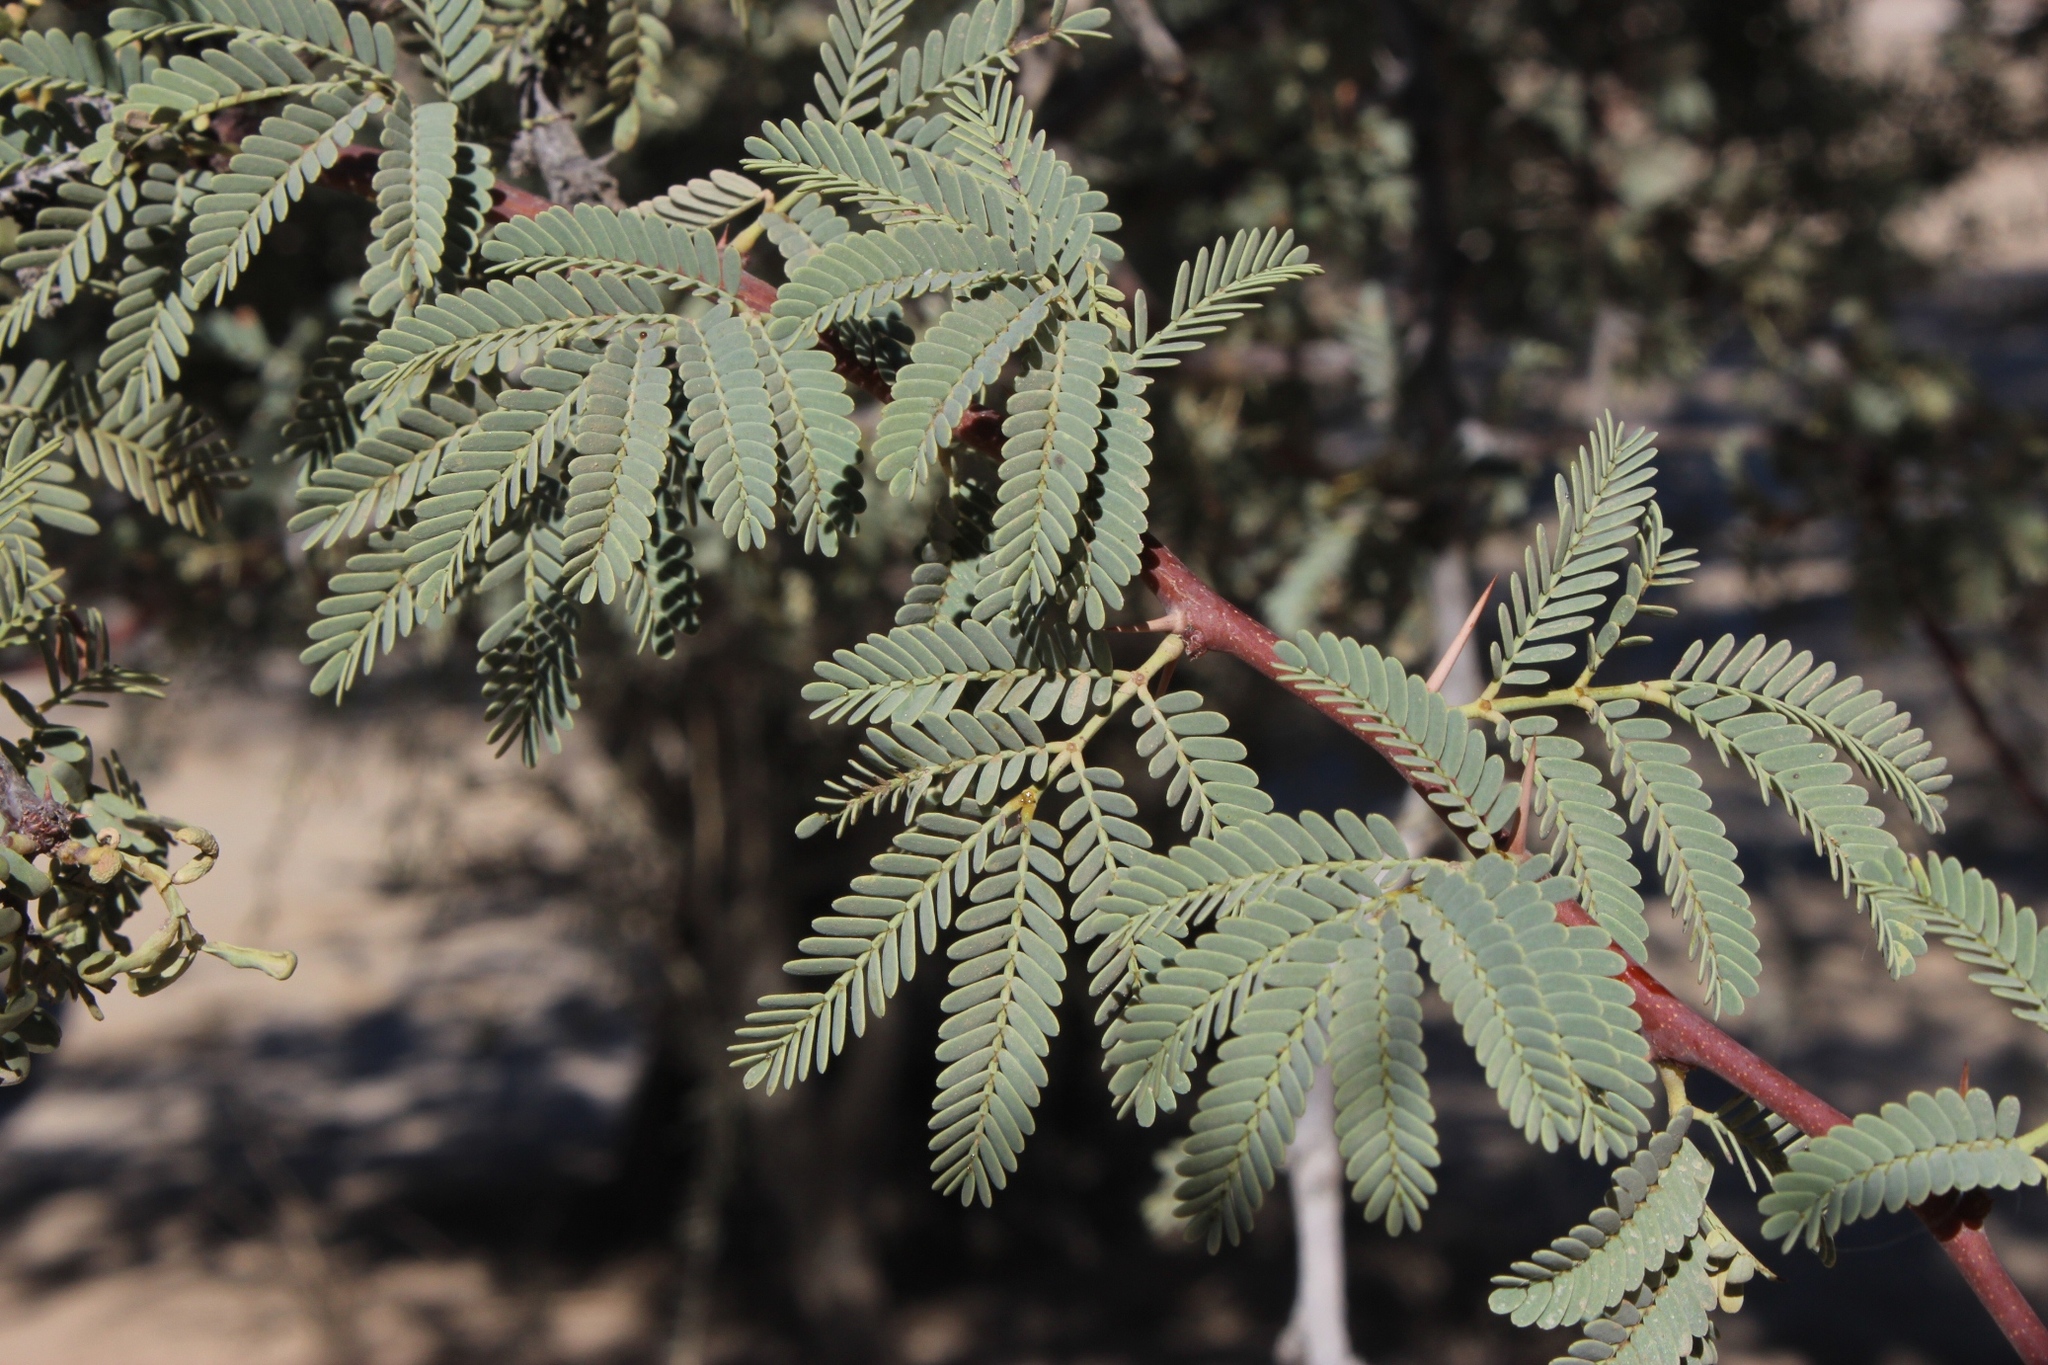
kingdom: Plantae
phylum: Tracheophyta
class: Magnoliopsida
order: Fabales
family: Fabaceae
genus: Vachellia
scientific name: Vachellia erioloba
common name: Camel thorn
